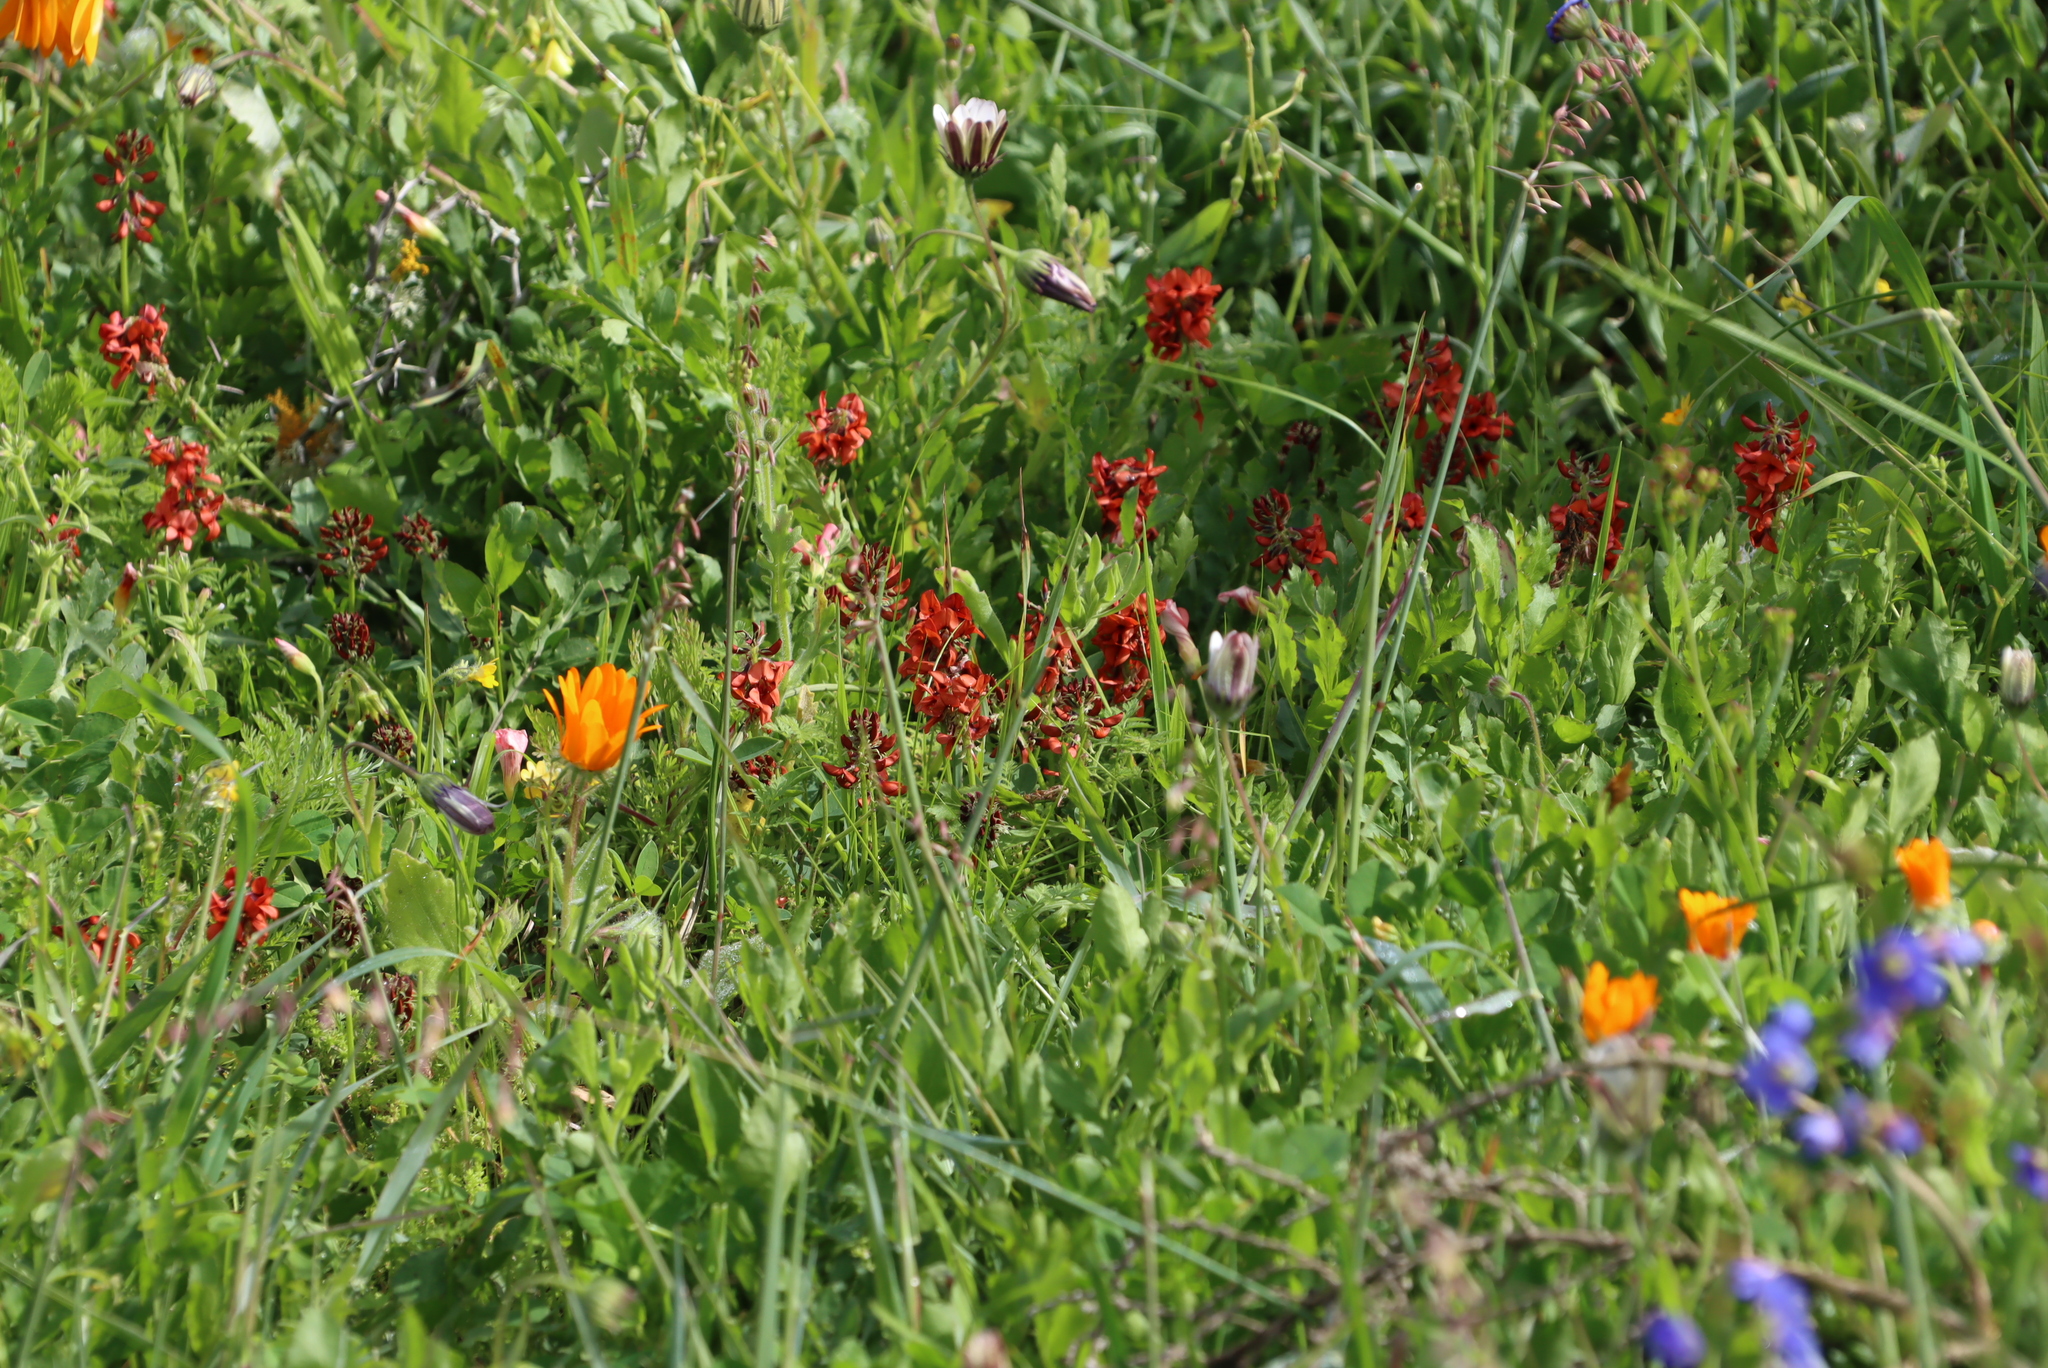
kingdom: Plantae
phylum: Tracheophyta
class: Magnoliopsida
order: Fabales
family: Fabaceae
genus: Indigofera
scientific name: Indigofera
